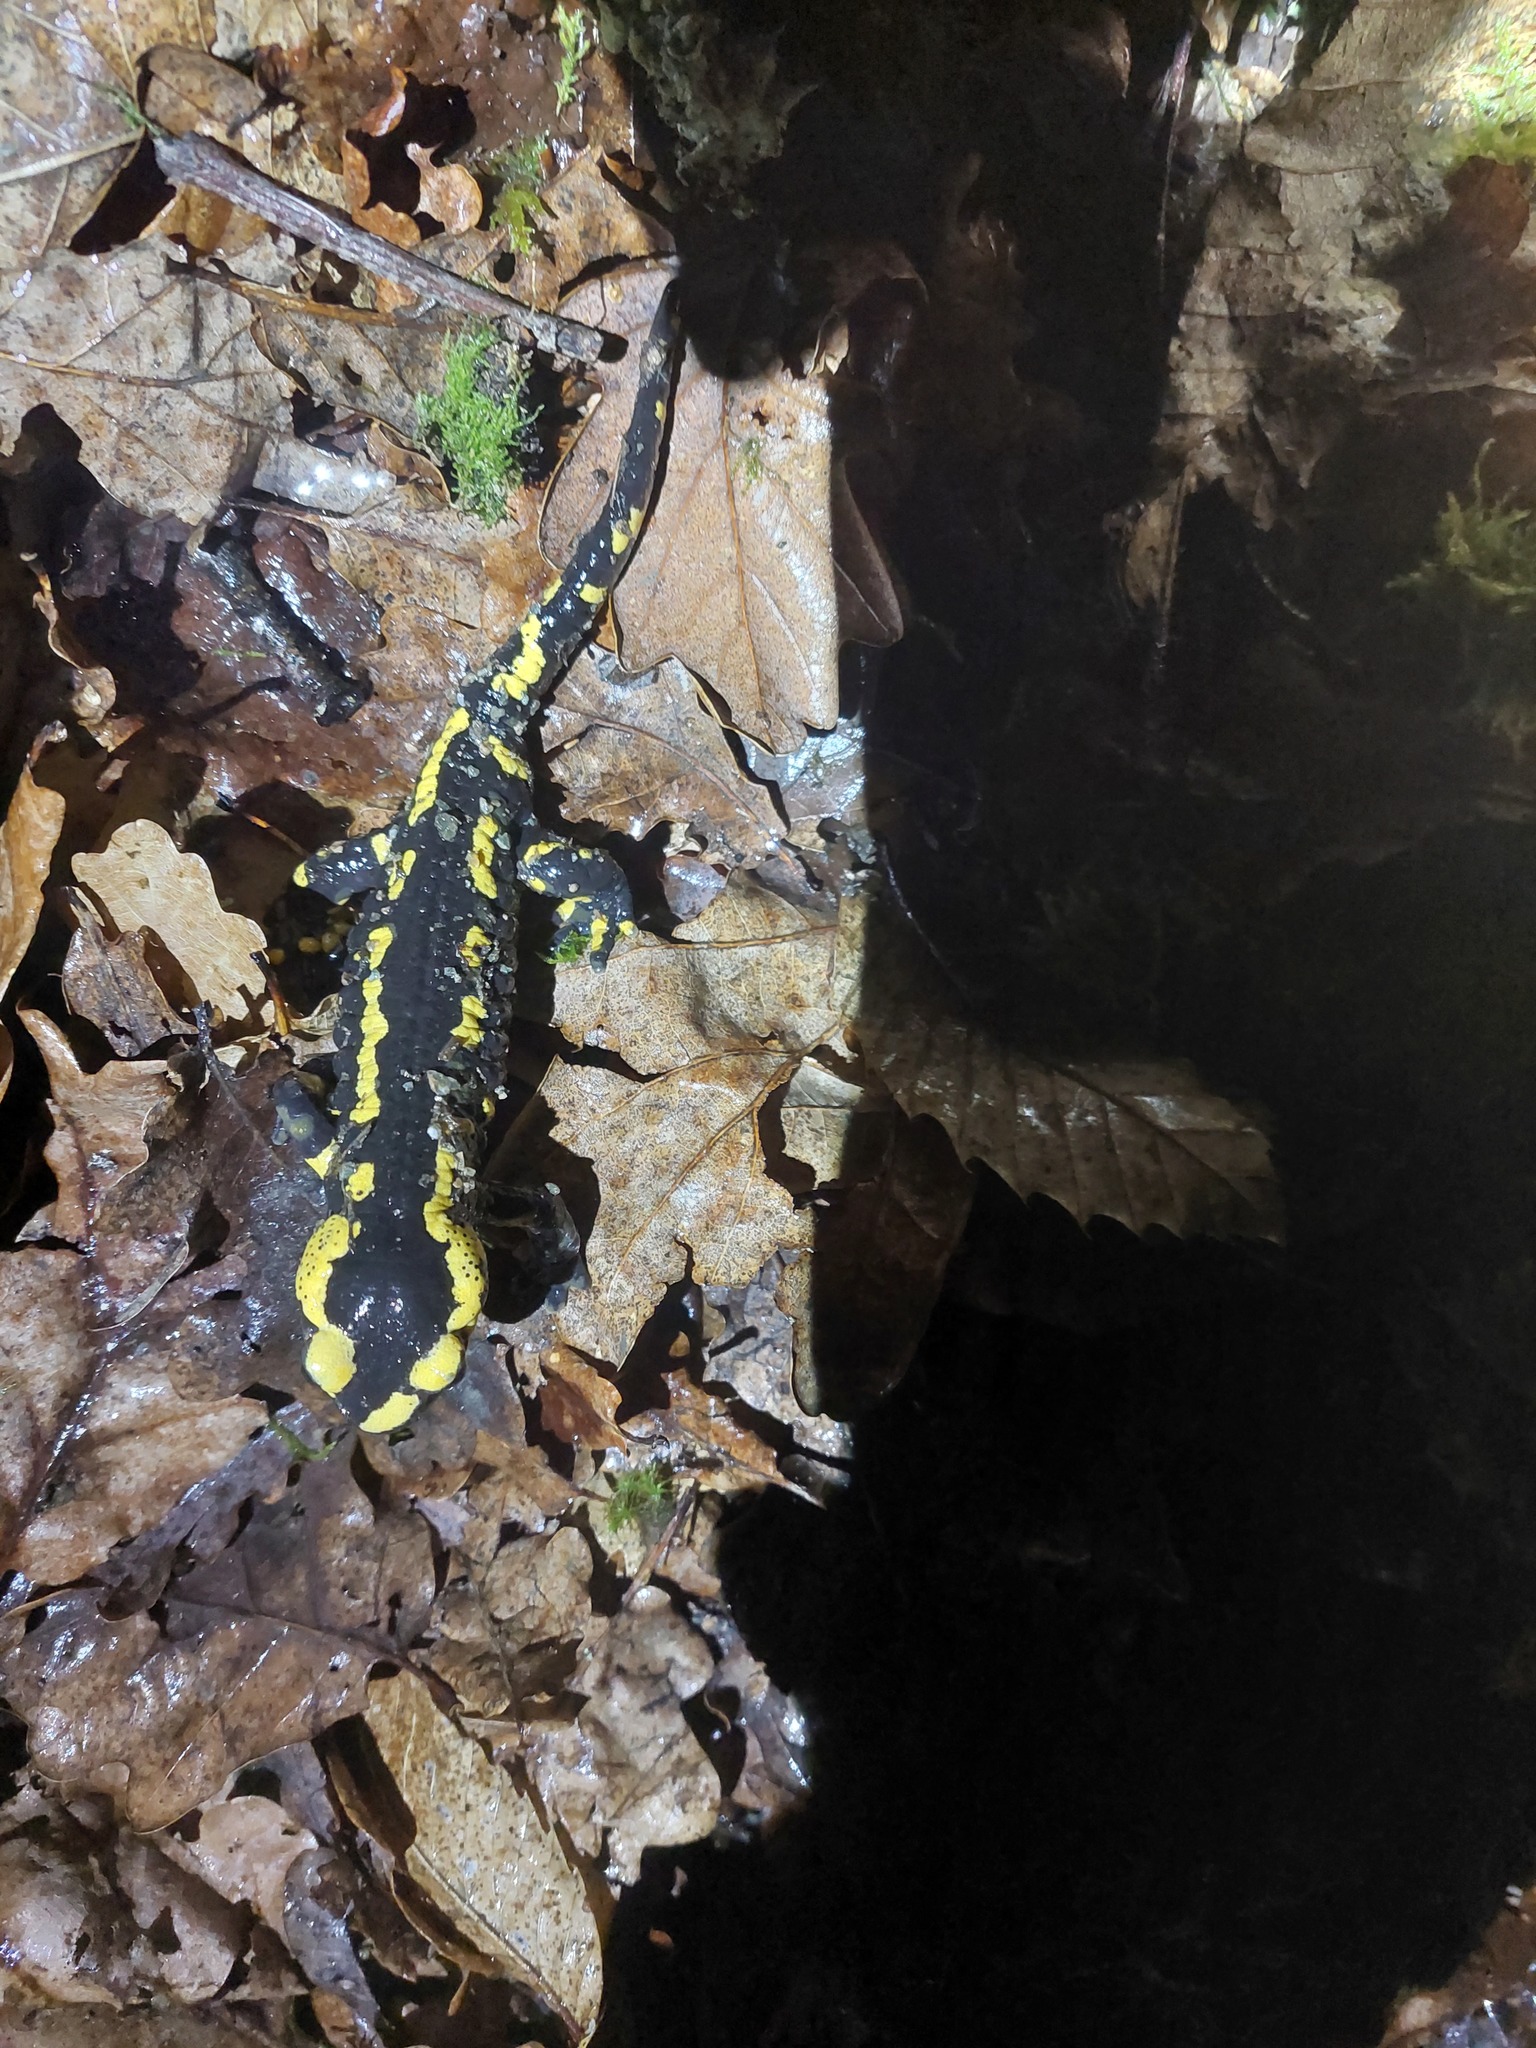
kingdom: Animalia
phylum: Chordata
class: Amphibia
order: Caudata
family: Salamandridae
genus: Salamandra
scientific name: Salamandra salamandra
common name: Fire salamander
